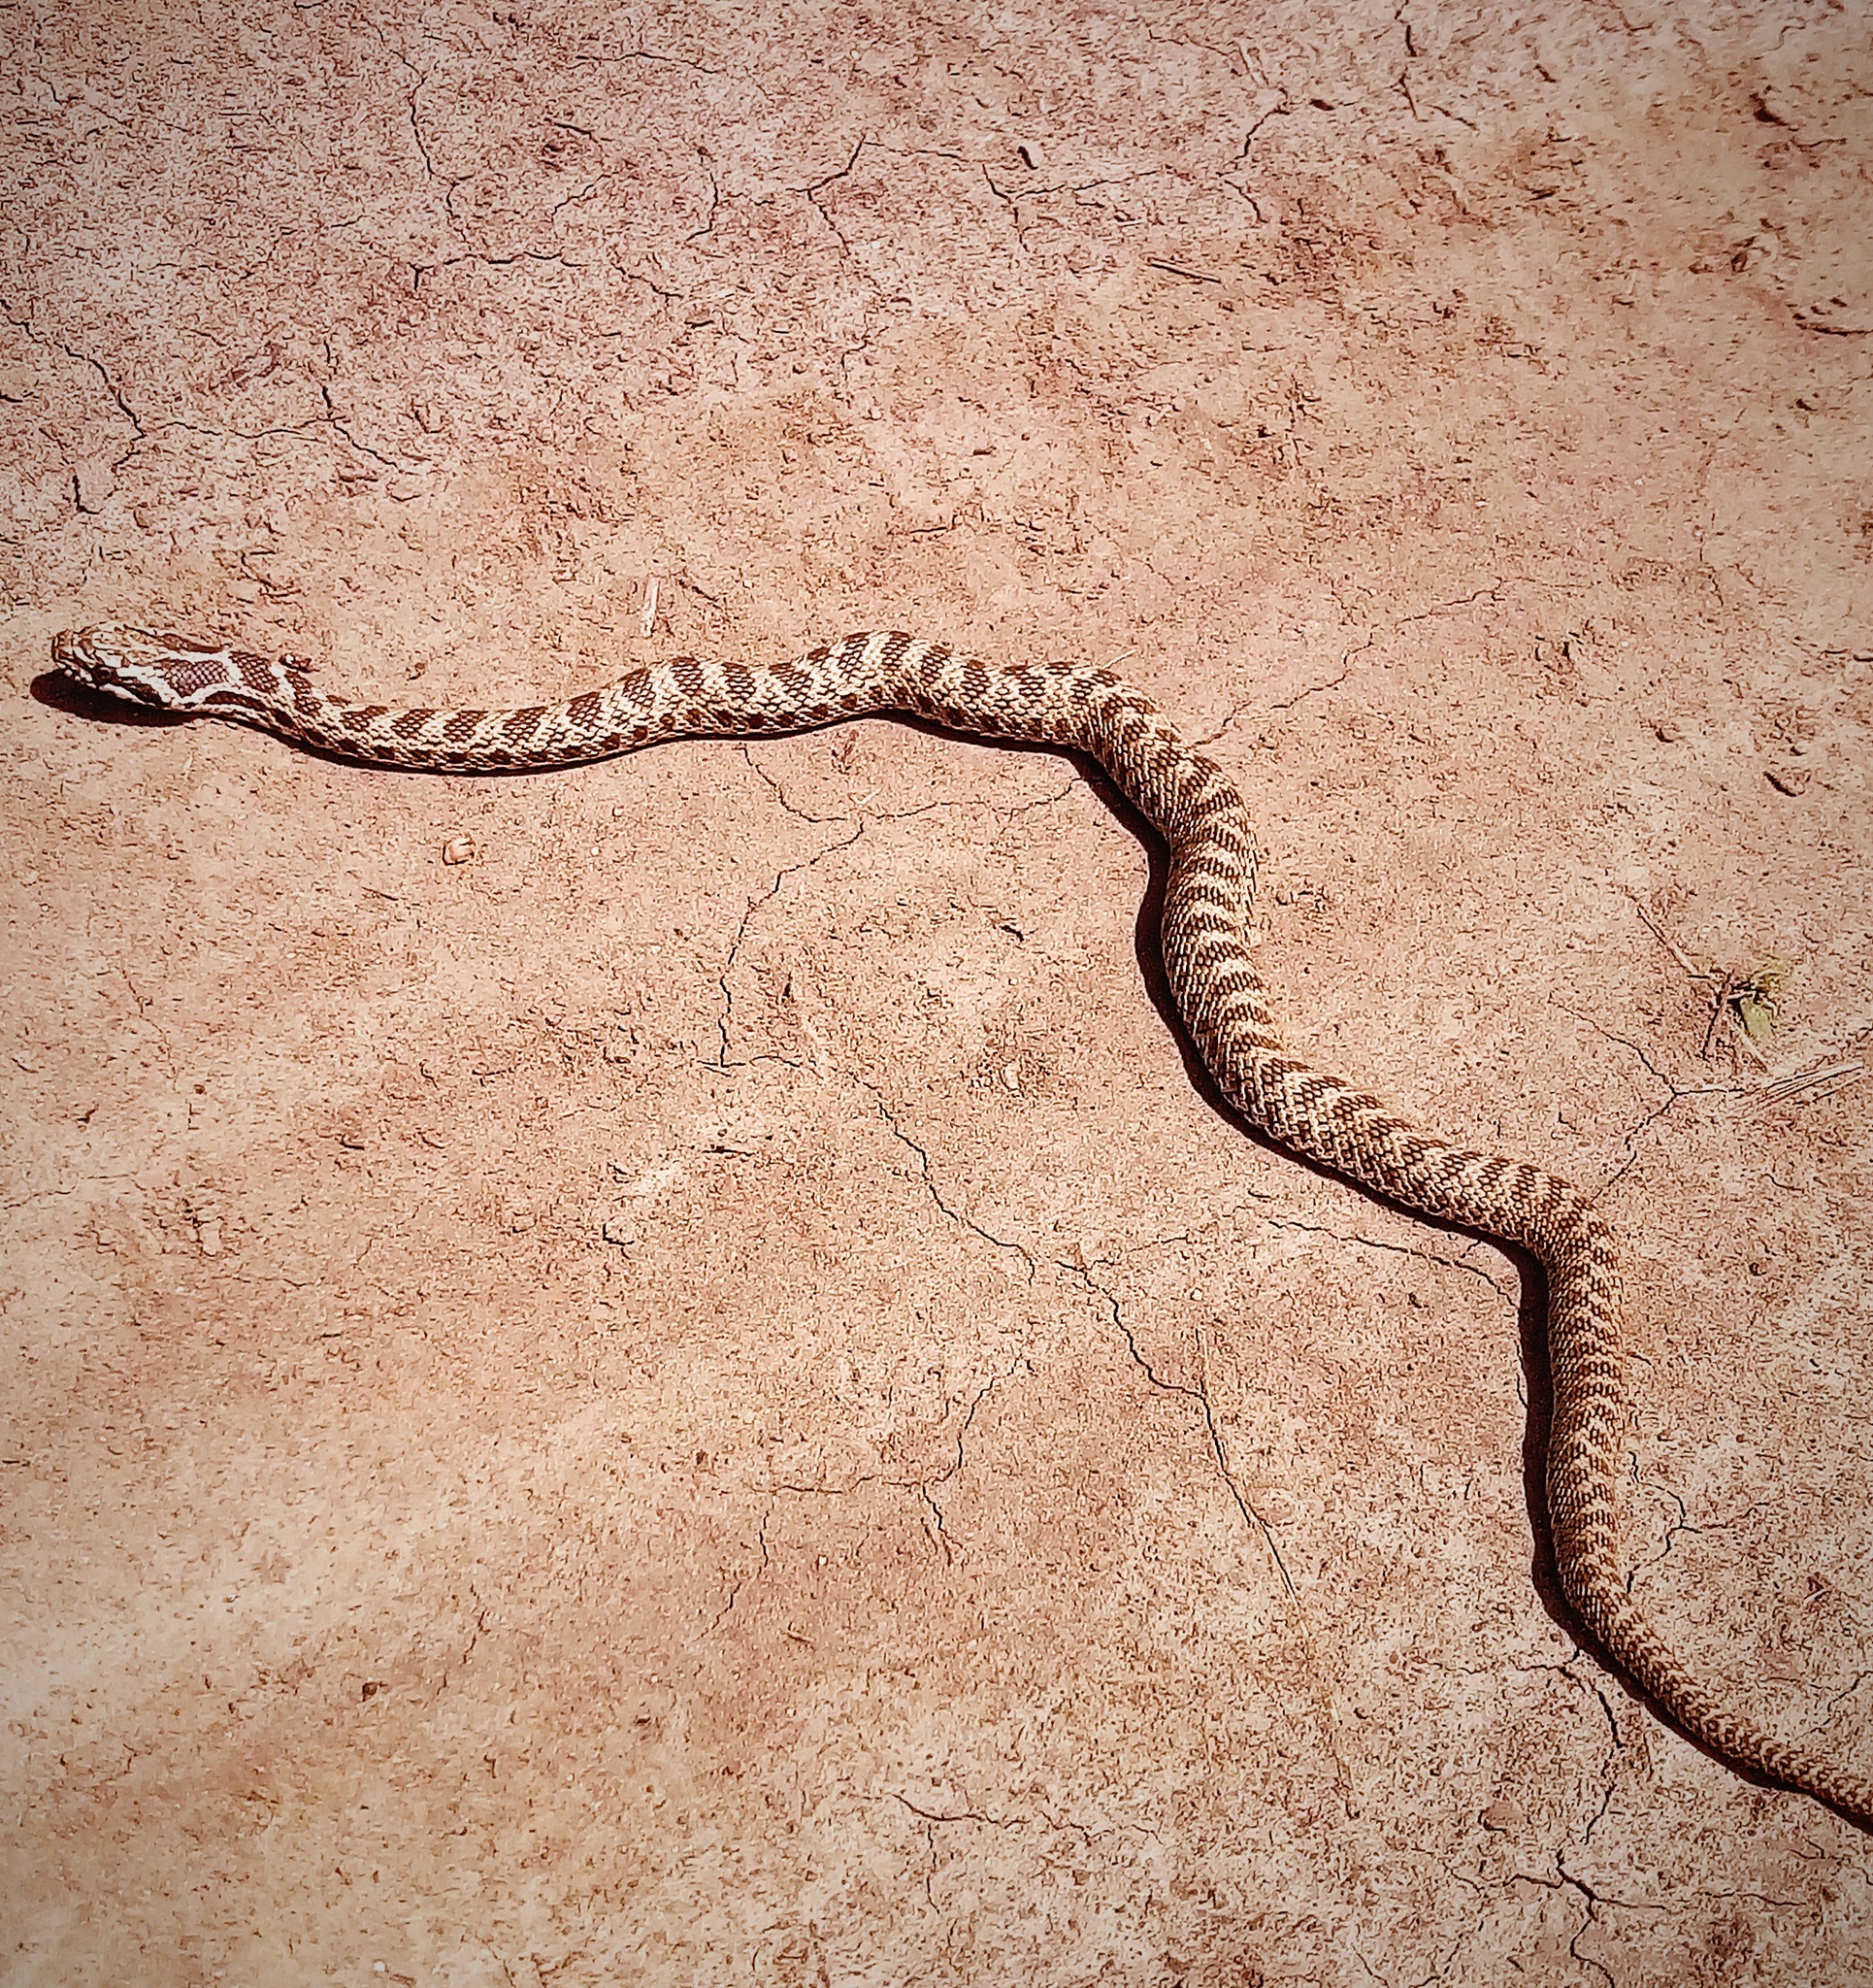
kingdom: Animalia
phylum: Chordata
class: Squamata
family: Colubridae
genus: Elaphe
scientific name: Elaphe sauromates
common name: Eastern four-lined ratsnake
